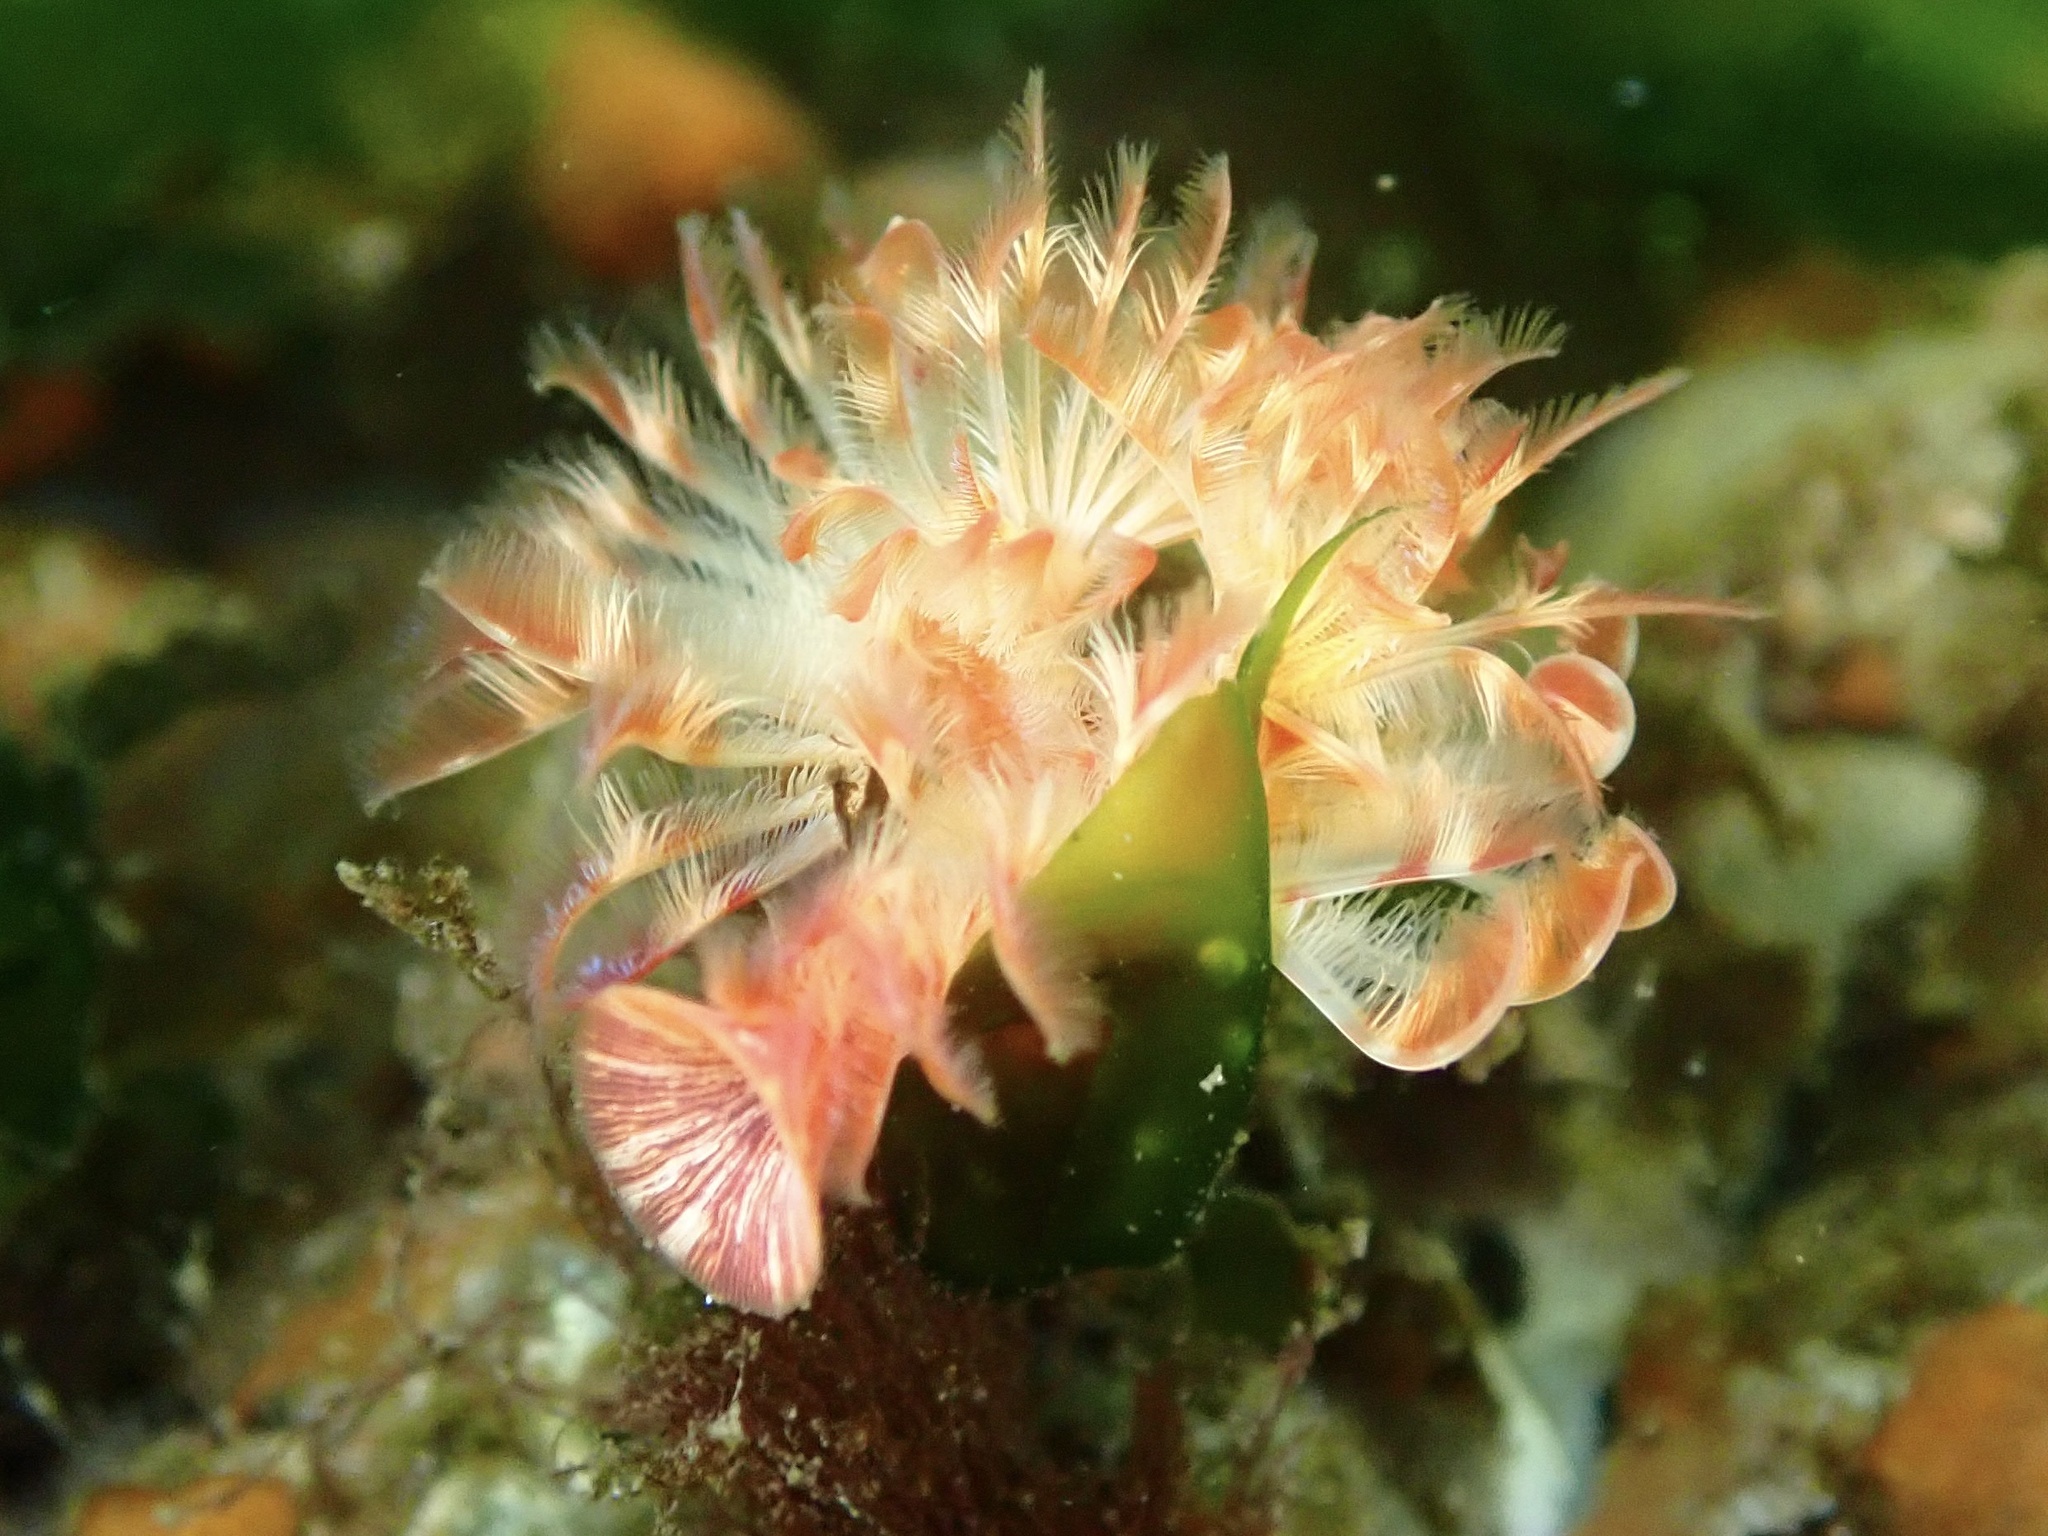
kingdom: Animalia
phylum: Annelida
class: Polychaeta
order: Sabellida
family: Serpulidae
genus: Serpula
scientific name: Serpula columbiana
